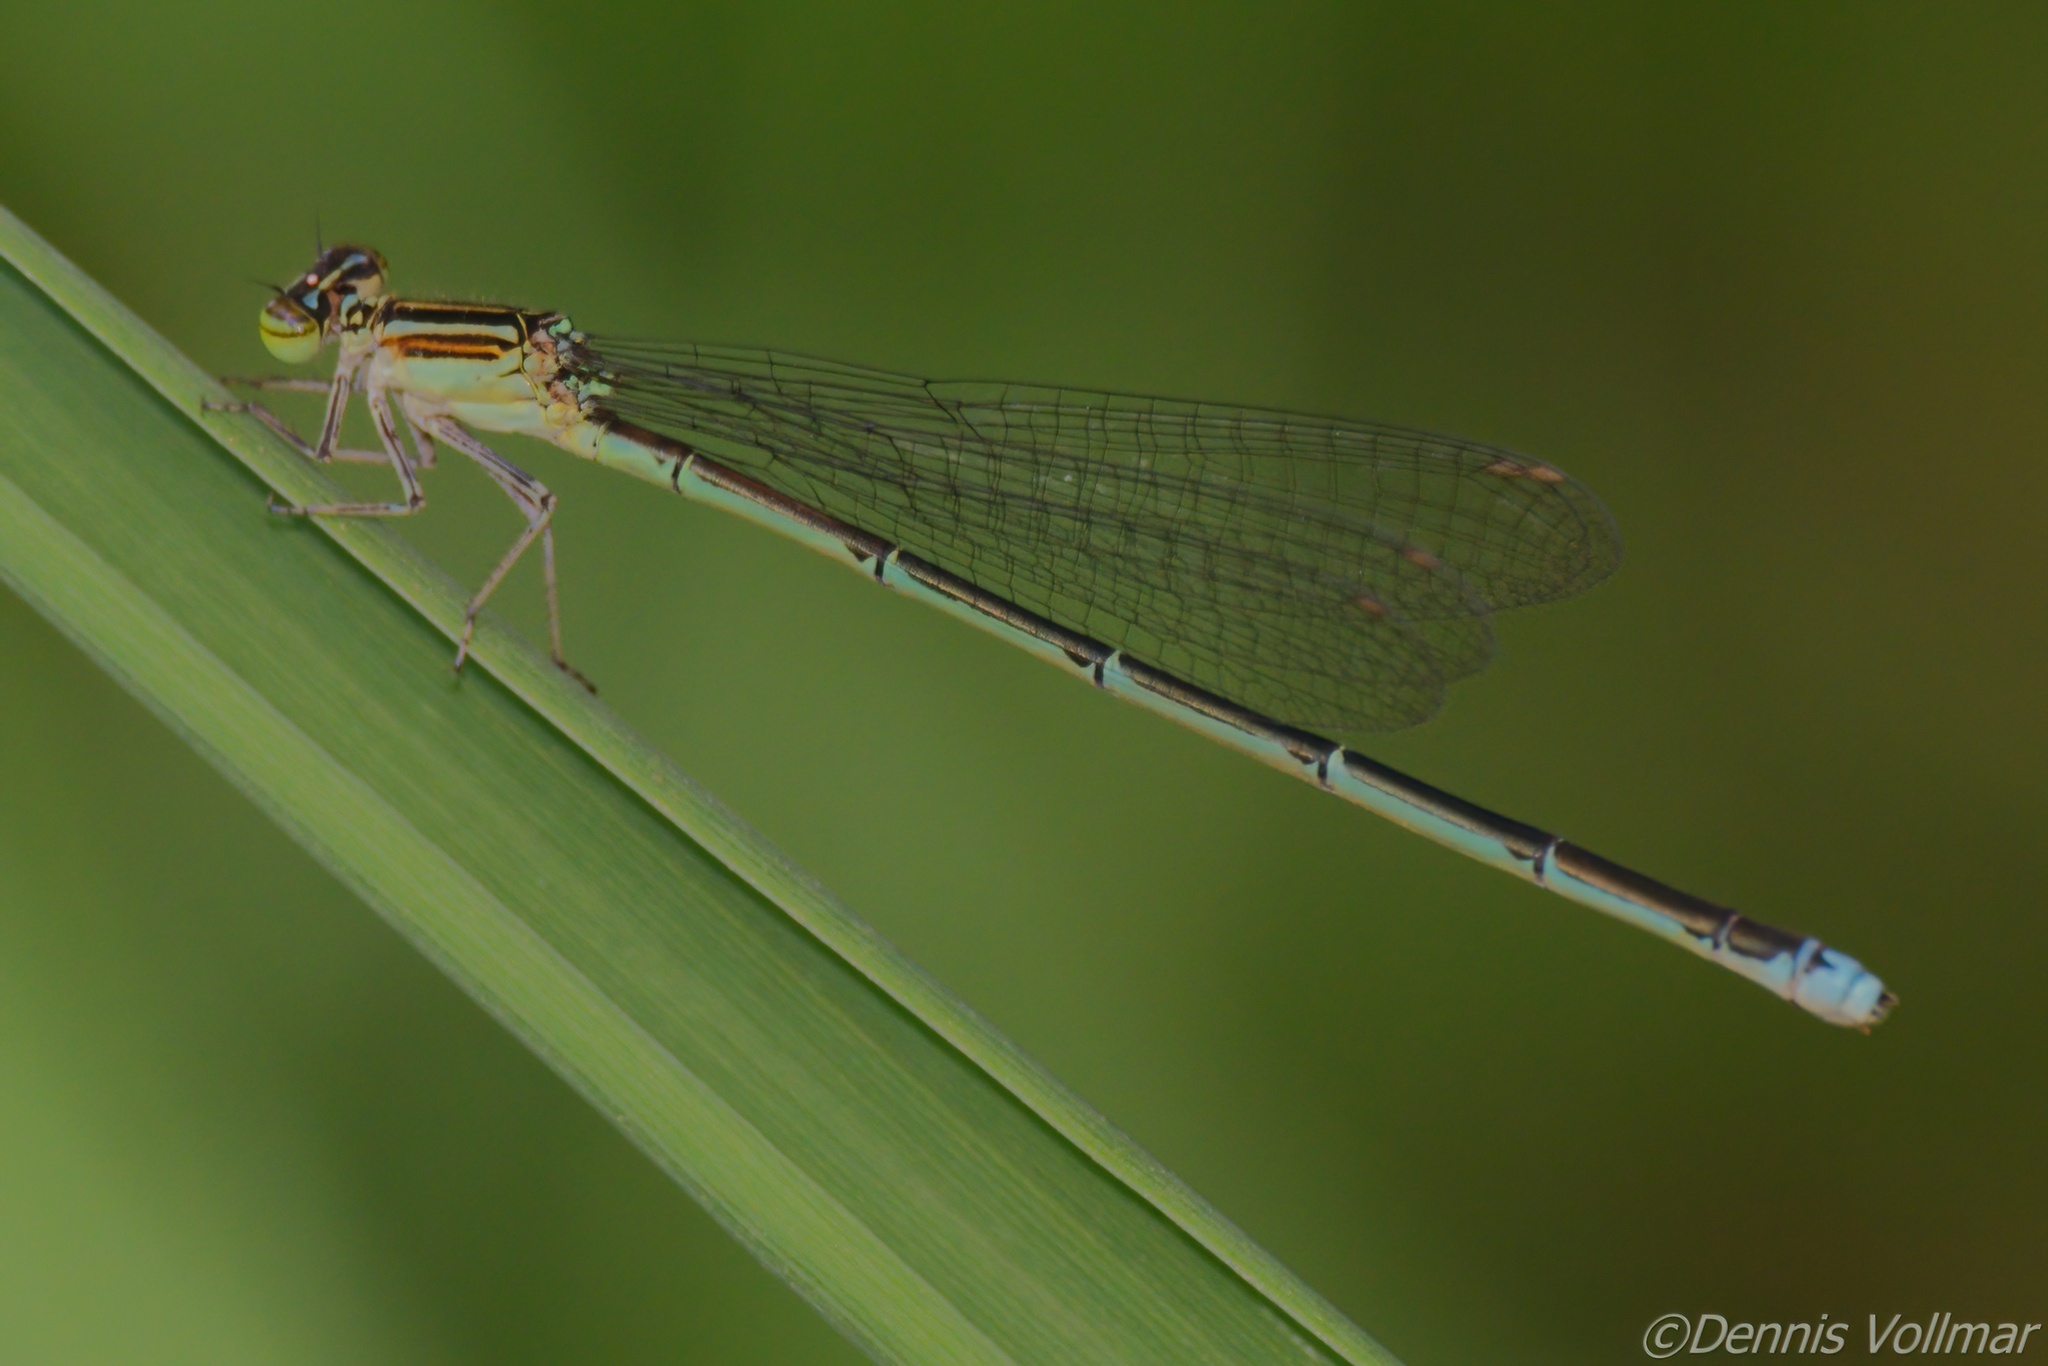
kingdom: Animalia
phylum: Arthropoda
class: Insecta
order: Odonata
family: Coenagrionidae
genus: Enallagma
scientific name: Enallagma exsulans
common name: Stream bluet
